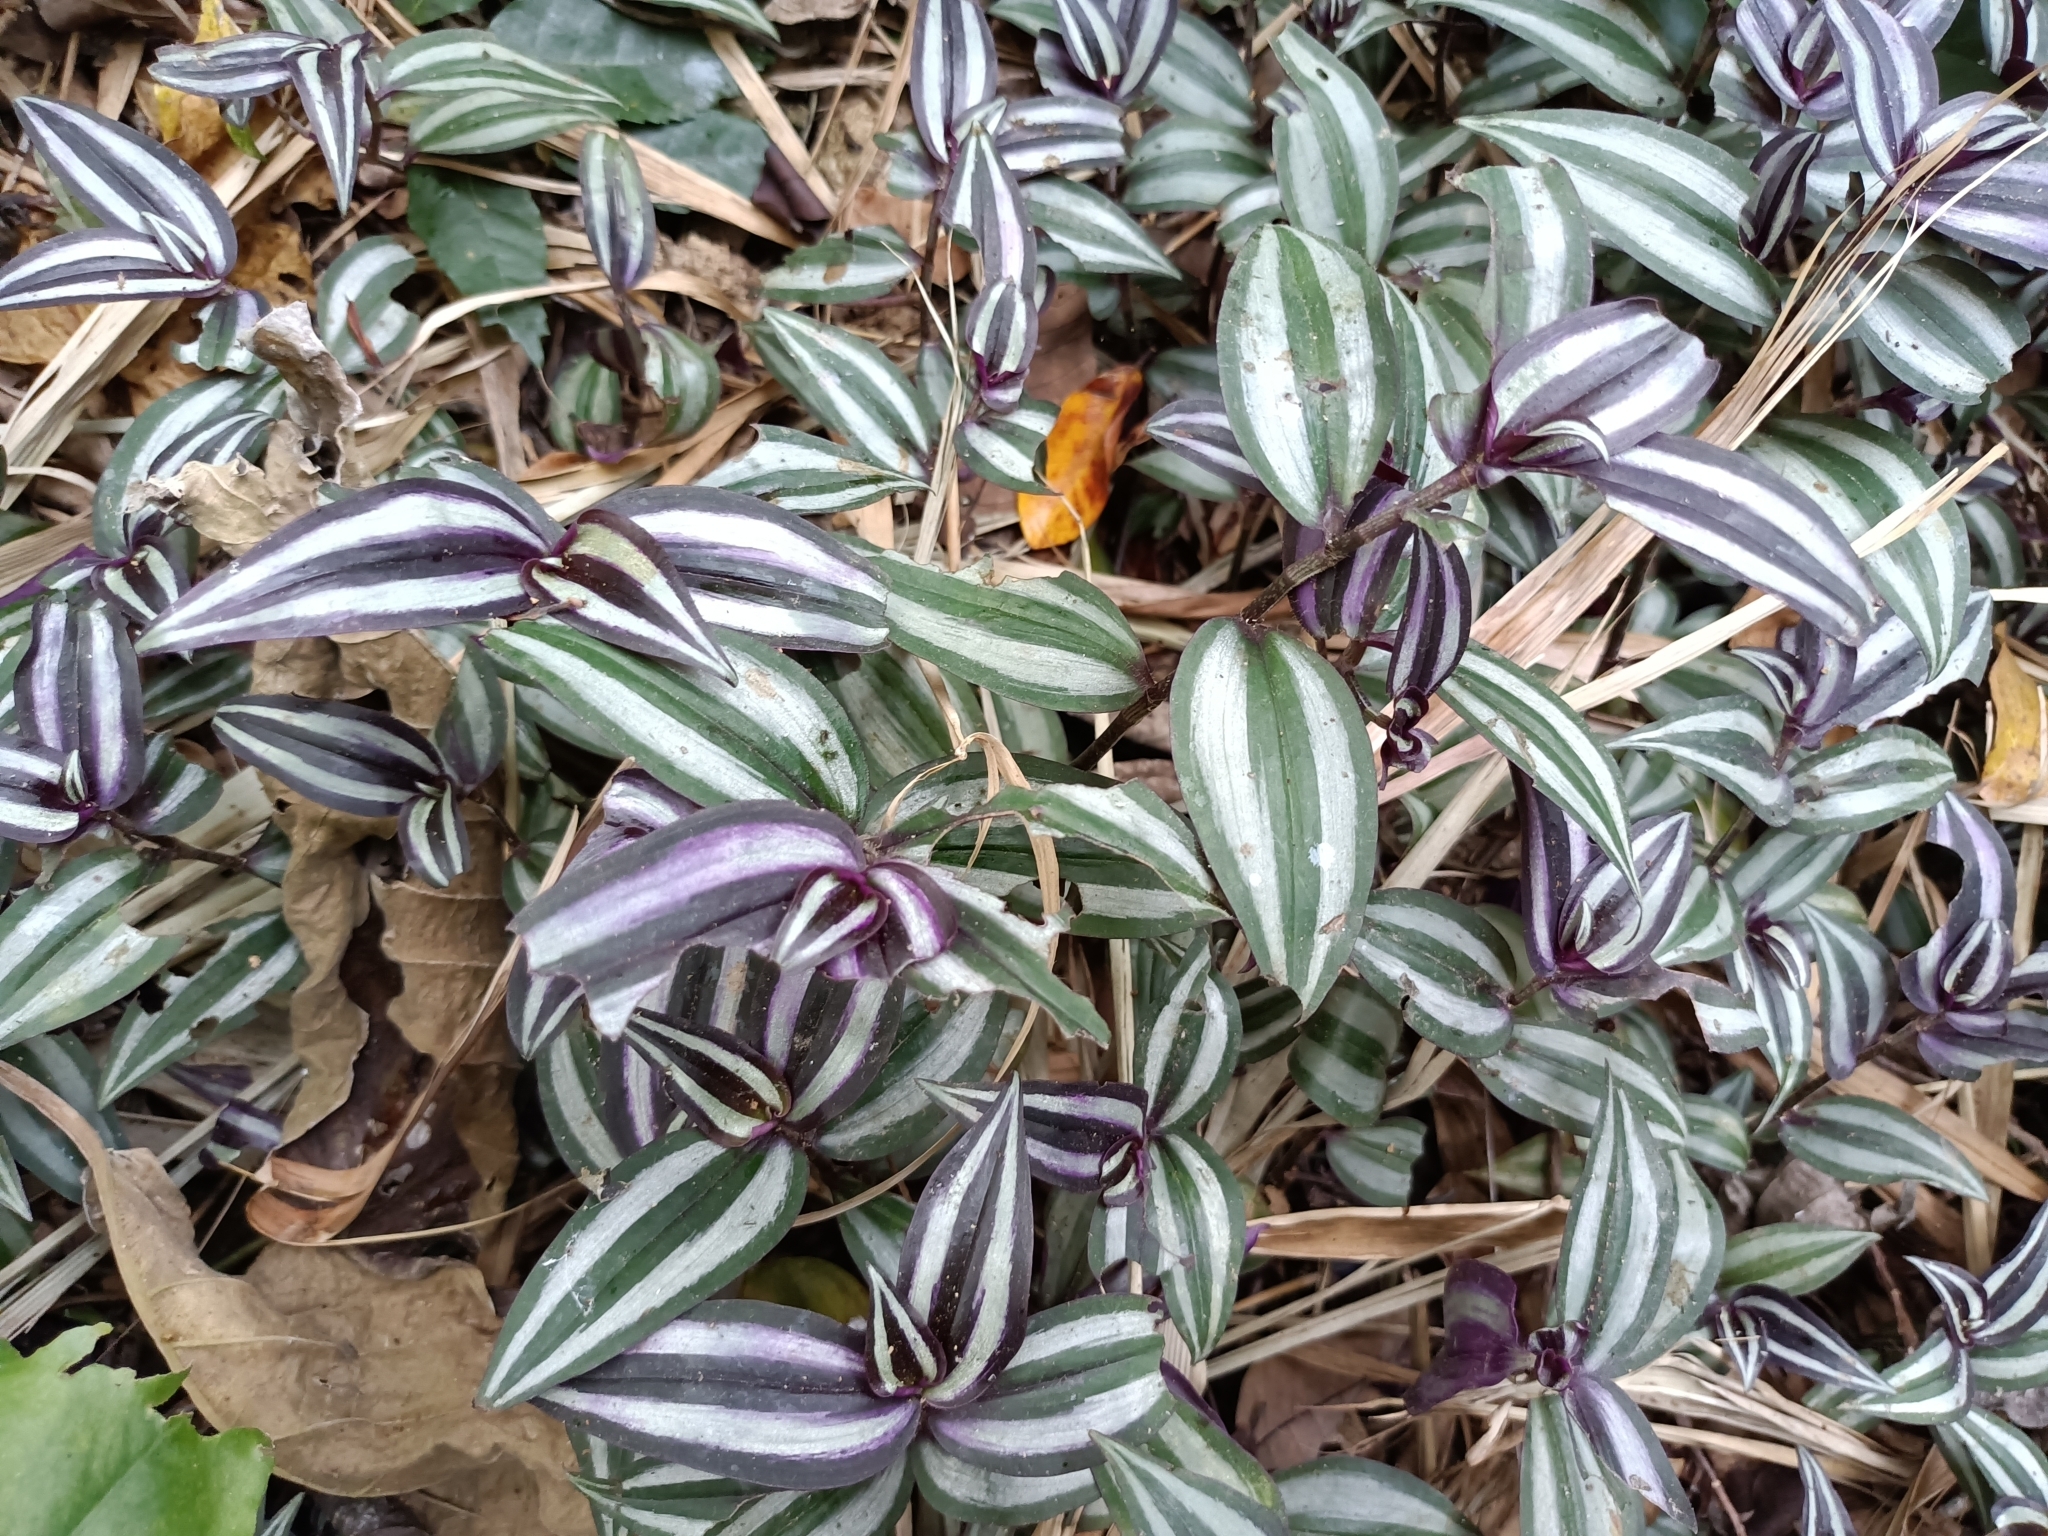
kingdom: Plantae
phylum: Tracheophyta
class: Liliopsida
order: Commelinales
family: Commelinaceae
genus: Tradescantia
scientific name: Tradescantia zebrina
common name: Inchplant
